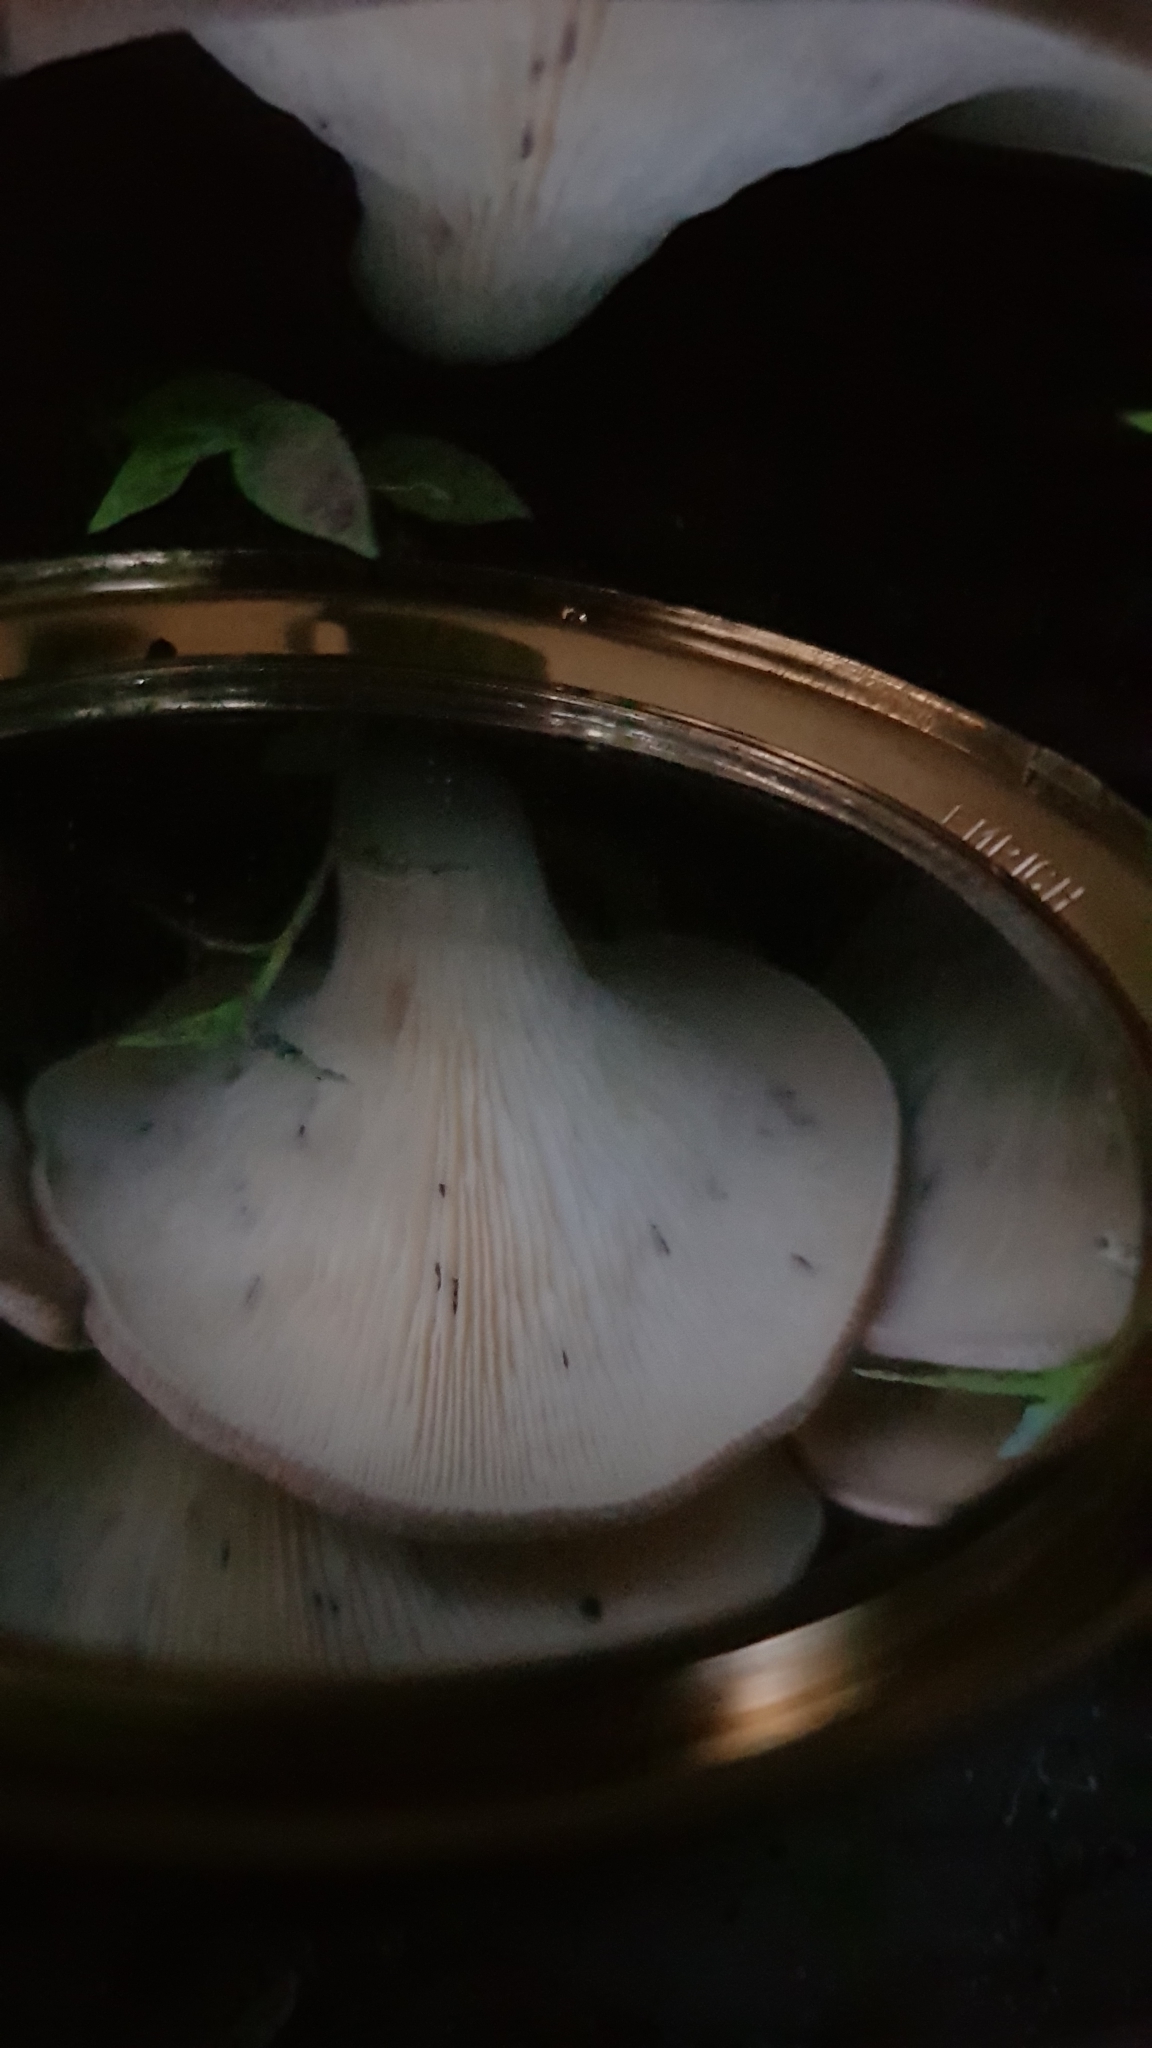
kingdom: Fungi
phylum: Basidiomycota
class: Agaricomycetes
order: Agaricales
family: Omphalotaceae
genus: Omphalotus
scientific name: Omphalotus nidiformis
